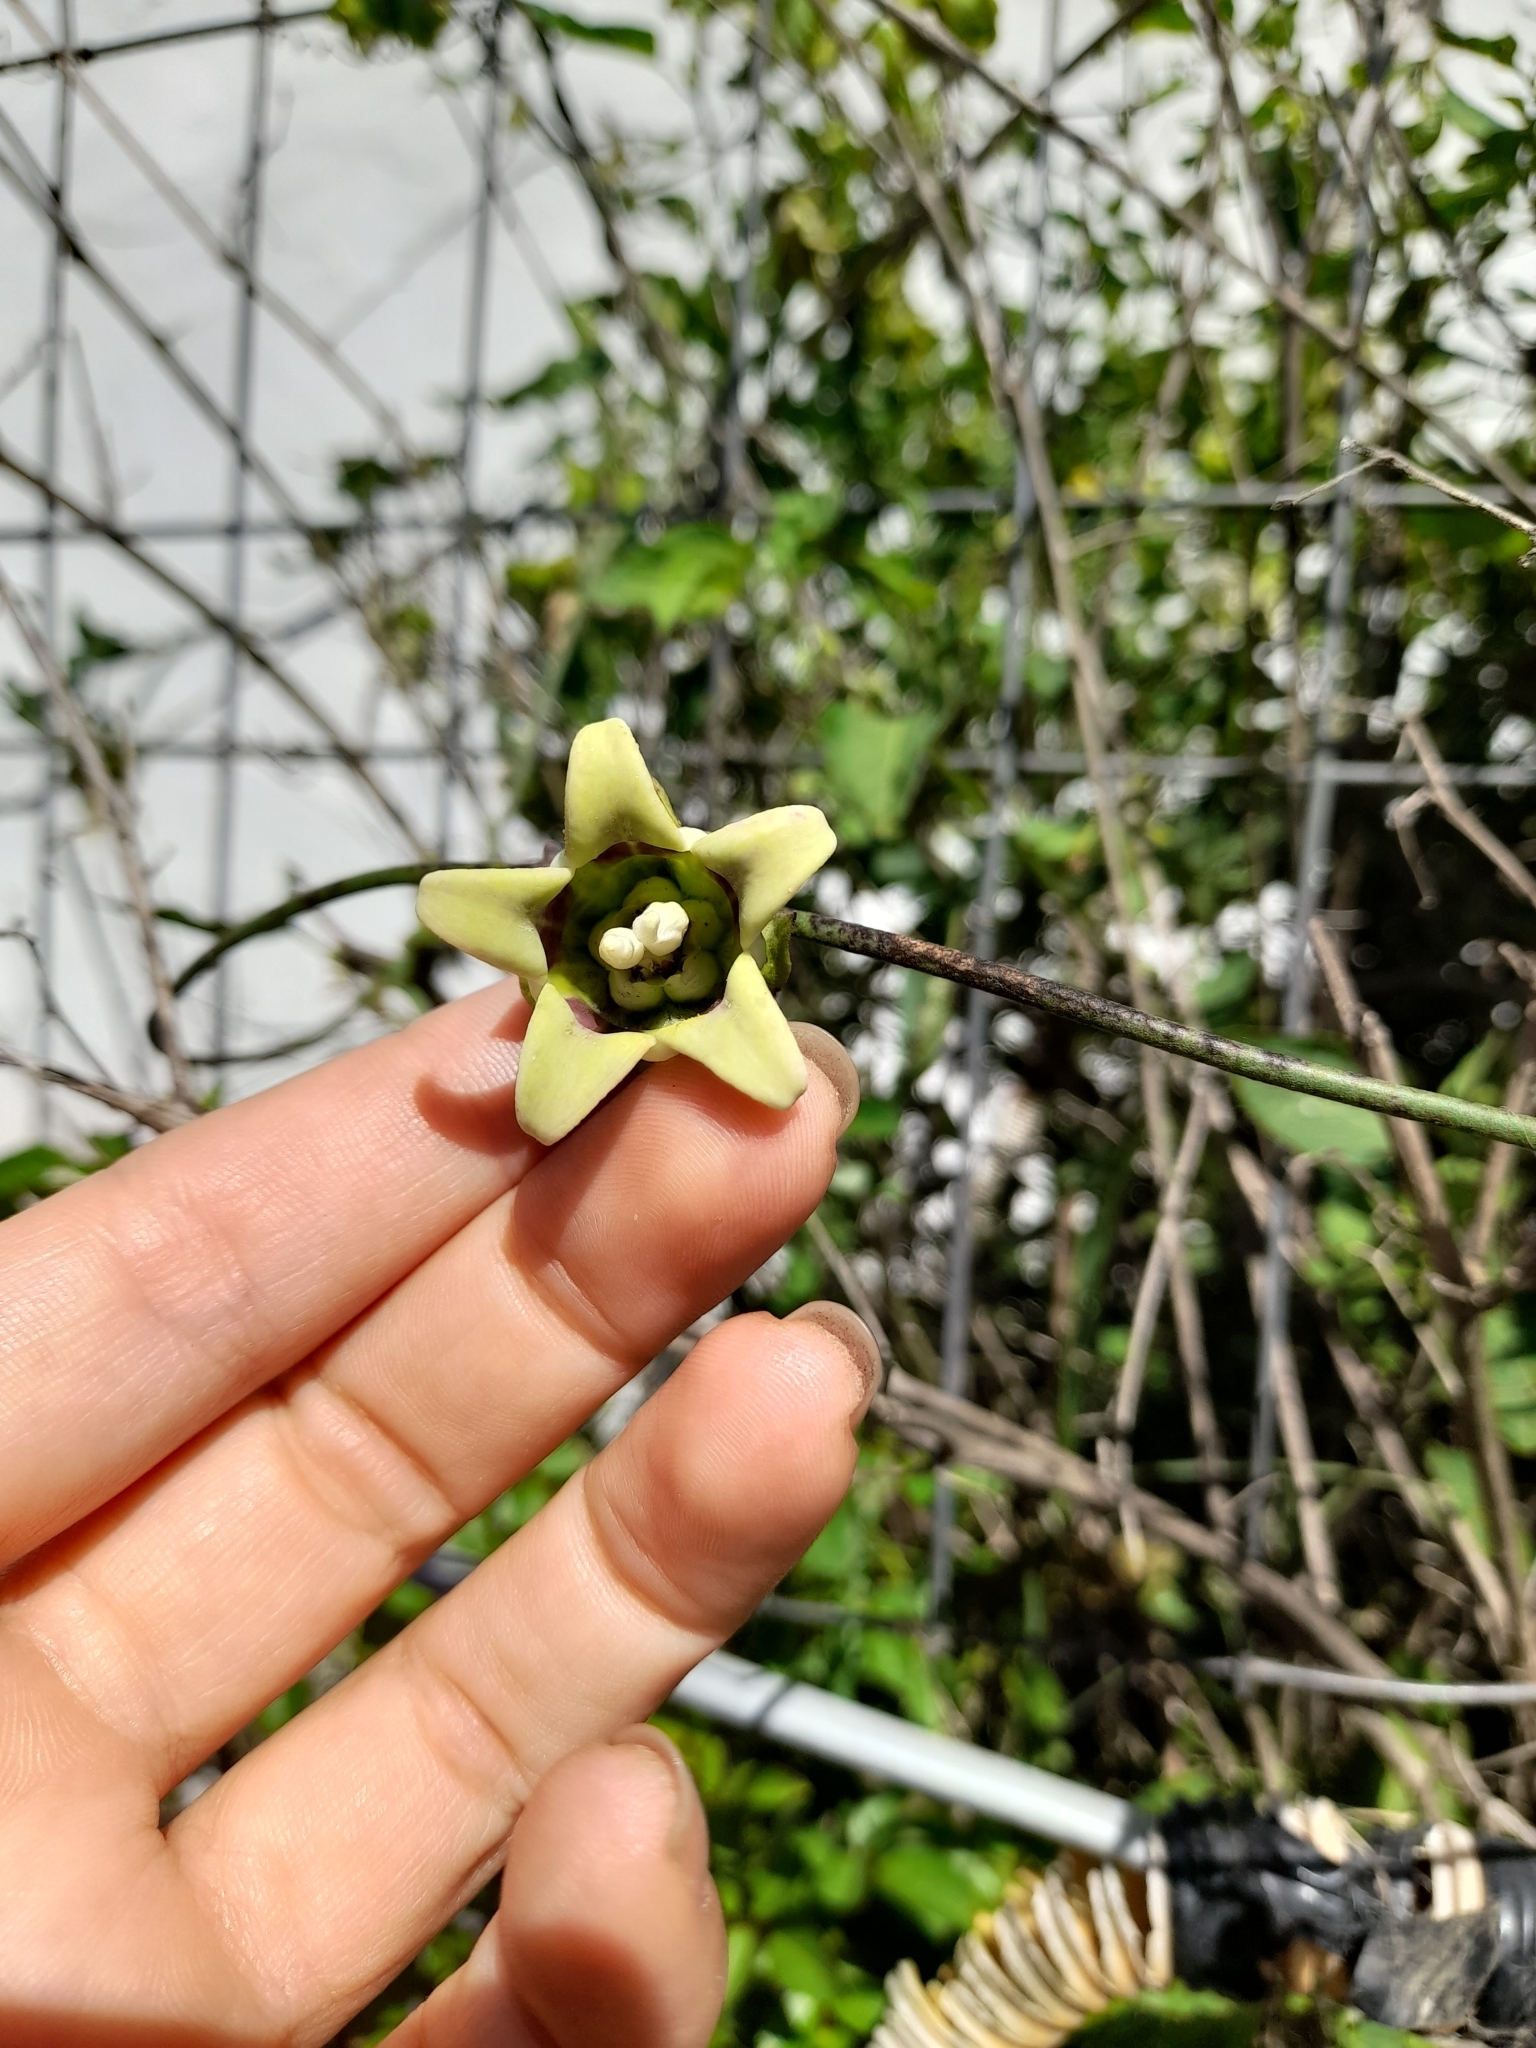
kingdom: Plantae
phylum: Tracheophyta
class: Magnoliopsida
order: Gentianales
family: Apocynaceae
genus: Araujia
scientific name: Araujia megapotamica
